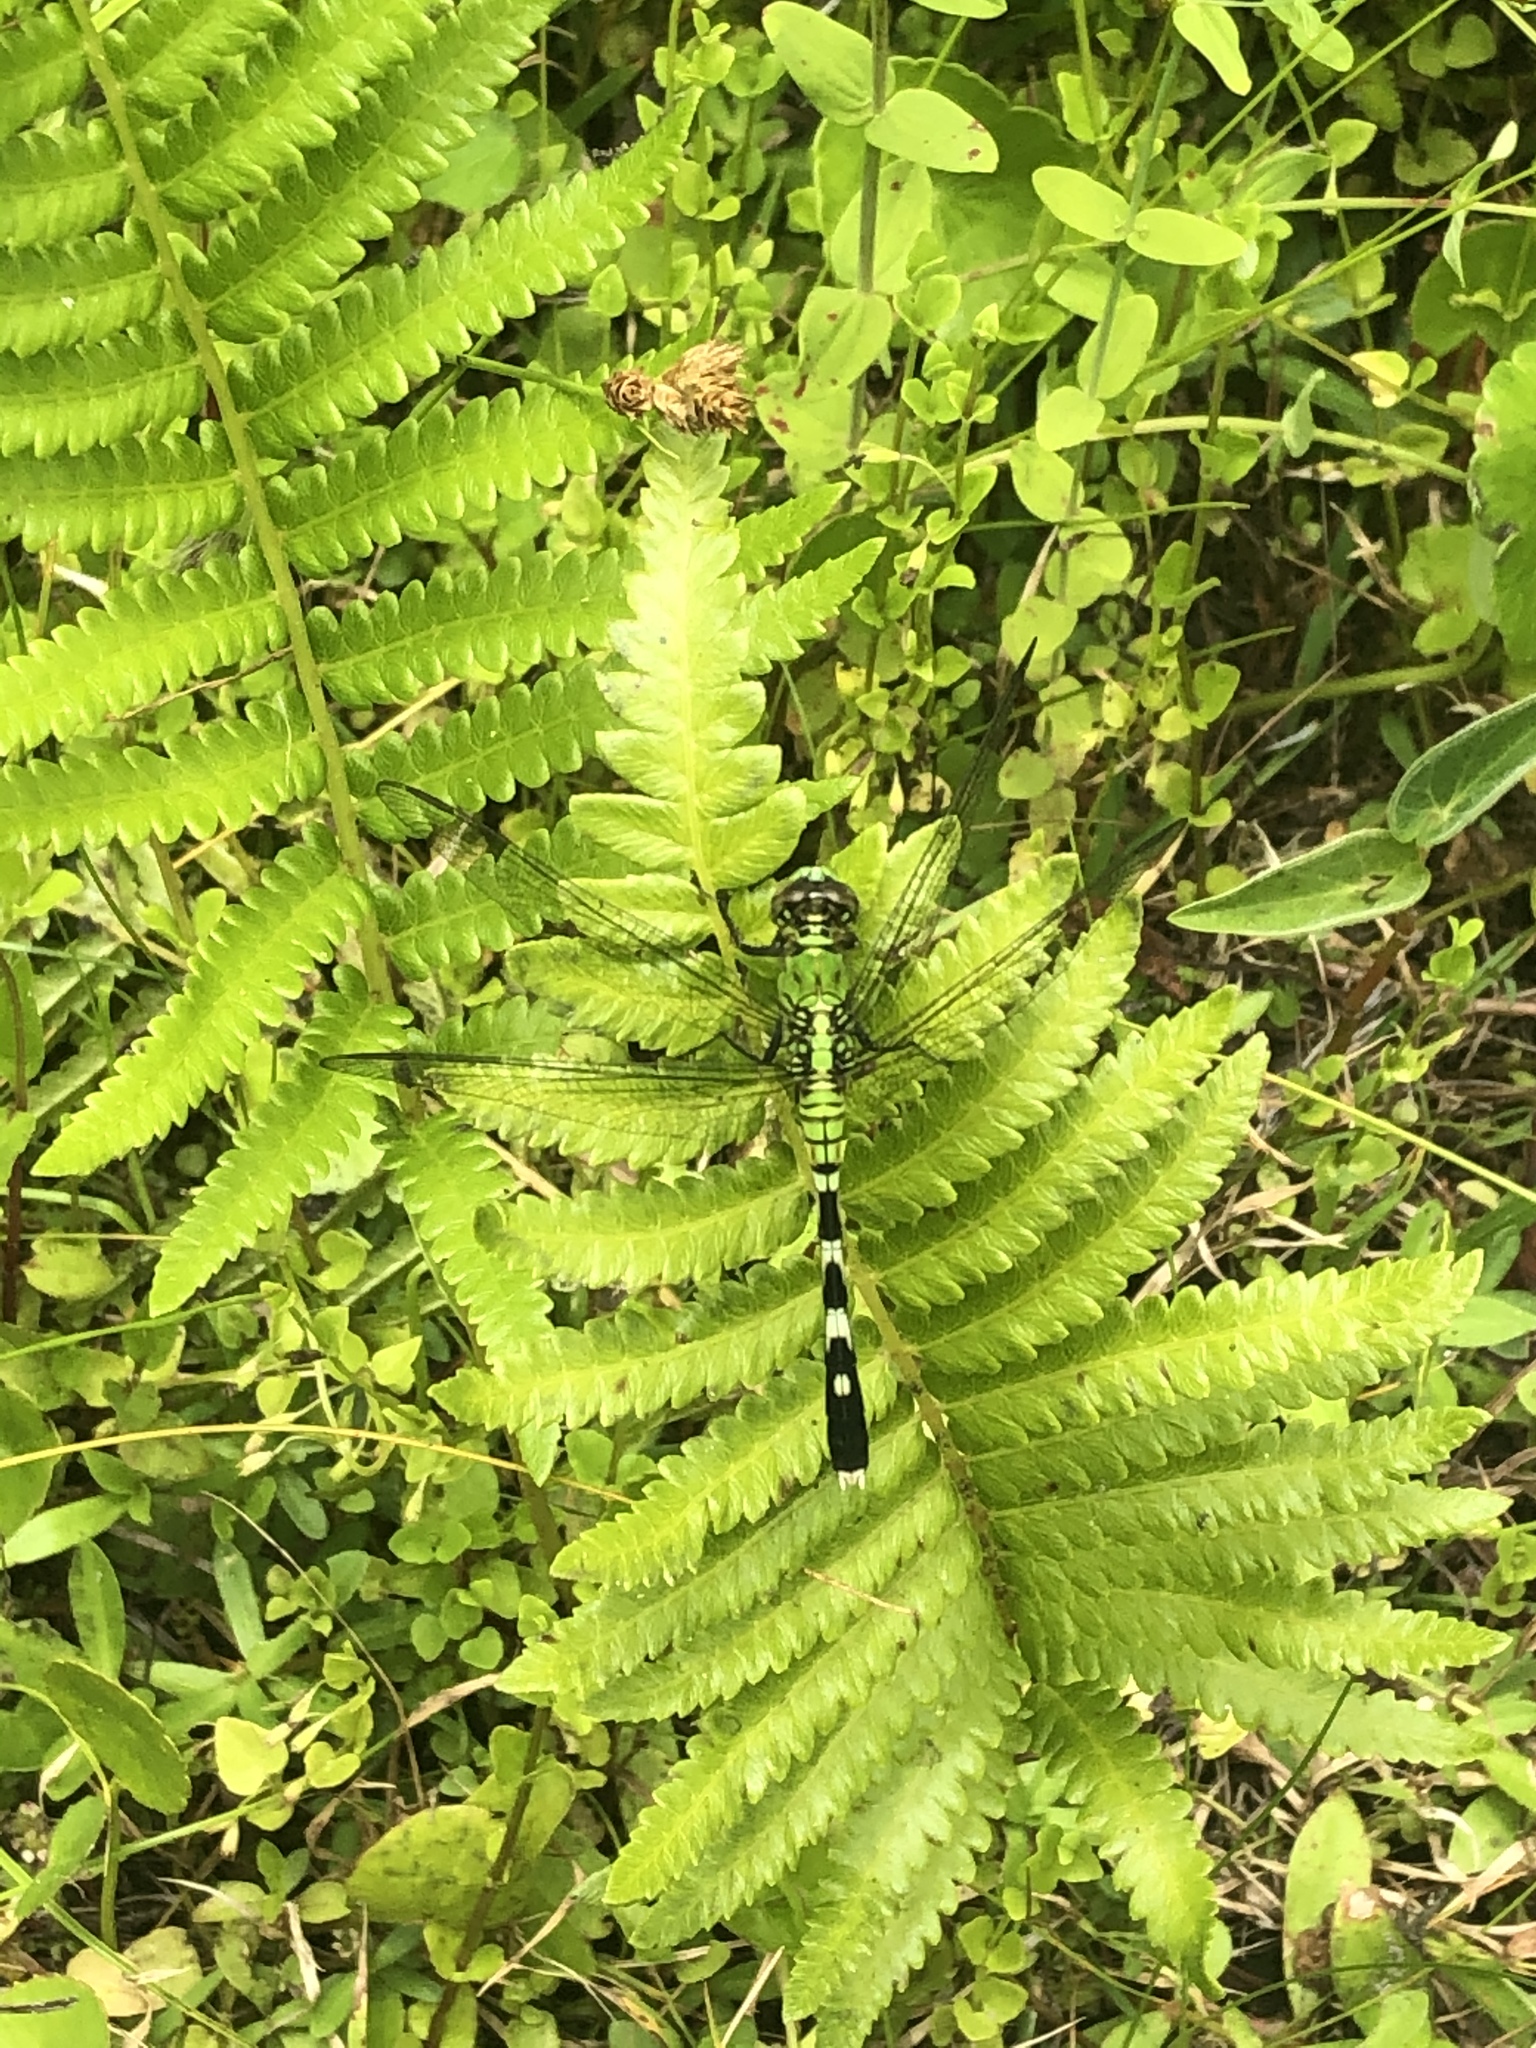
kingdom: Animalia
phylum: Arthropoda
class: Insecta
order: Odonata
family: Libellulidae
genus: Erythemis
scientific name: Erythemis simplicicollis
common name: Eastern pondhawk
